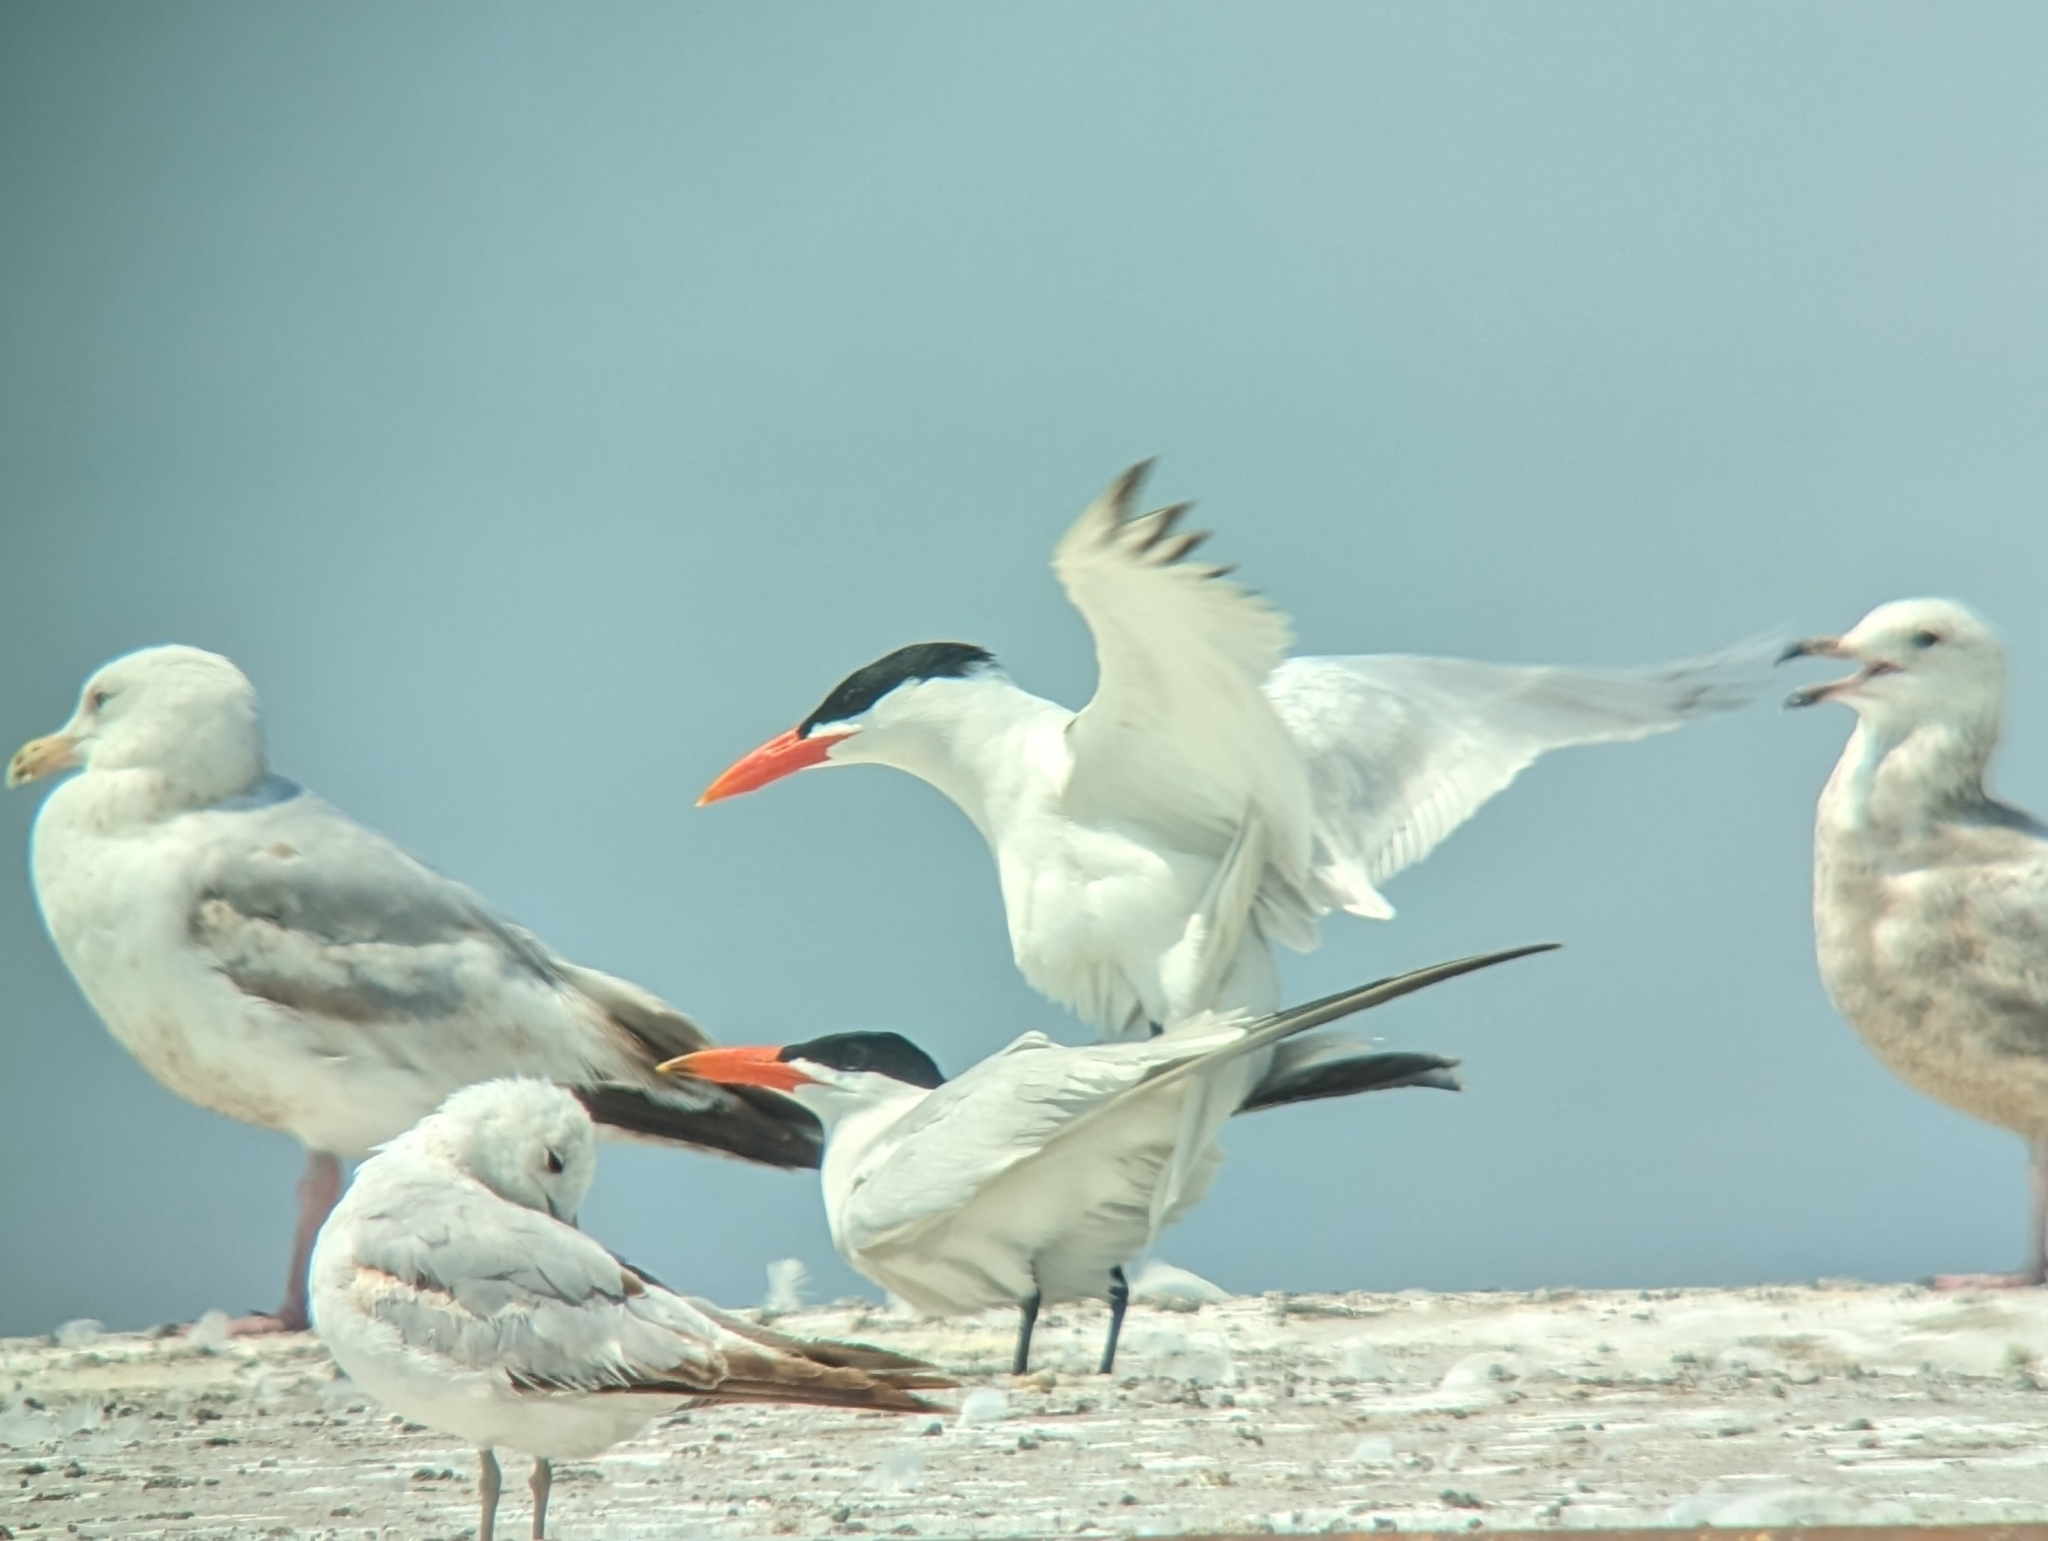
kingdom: Animalia
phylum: Chordata
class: Aves
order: Charadriiformes
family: Laridae
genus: Hydroprogne
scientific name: Hydroprogne caspia
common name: Caspian tern
